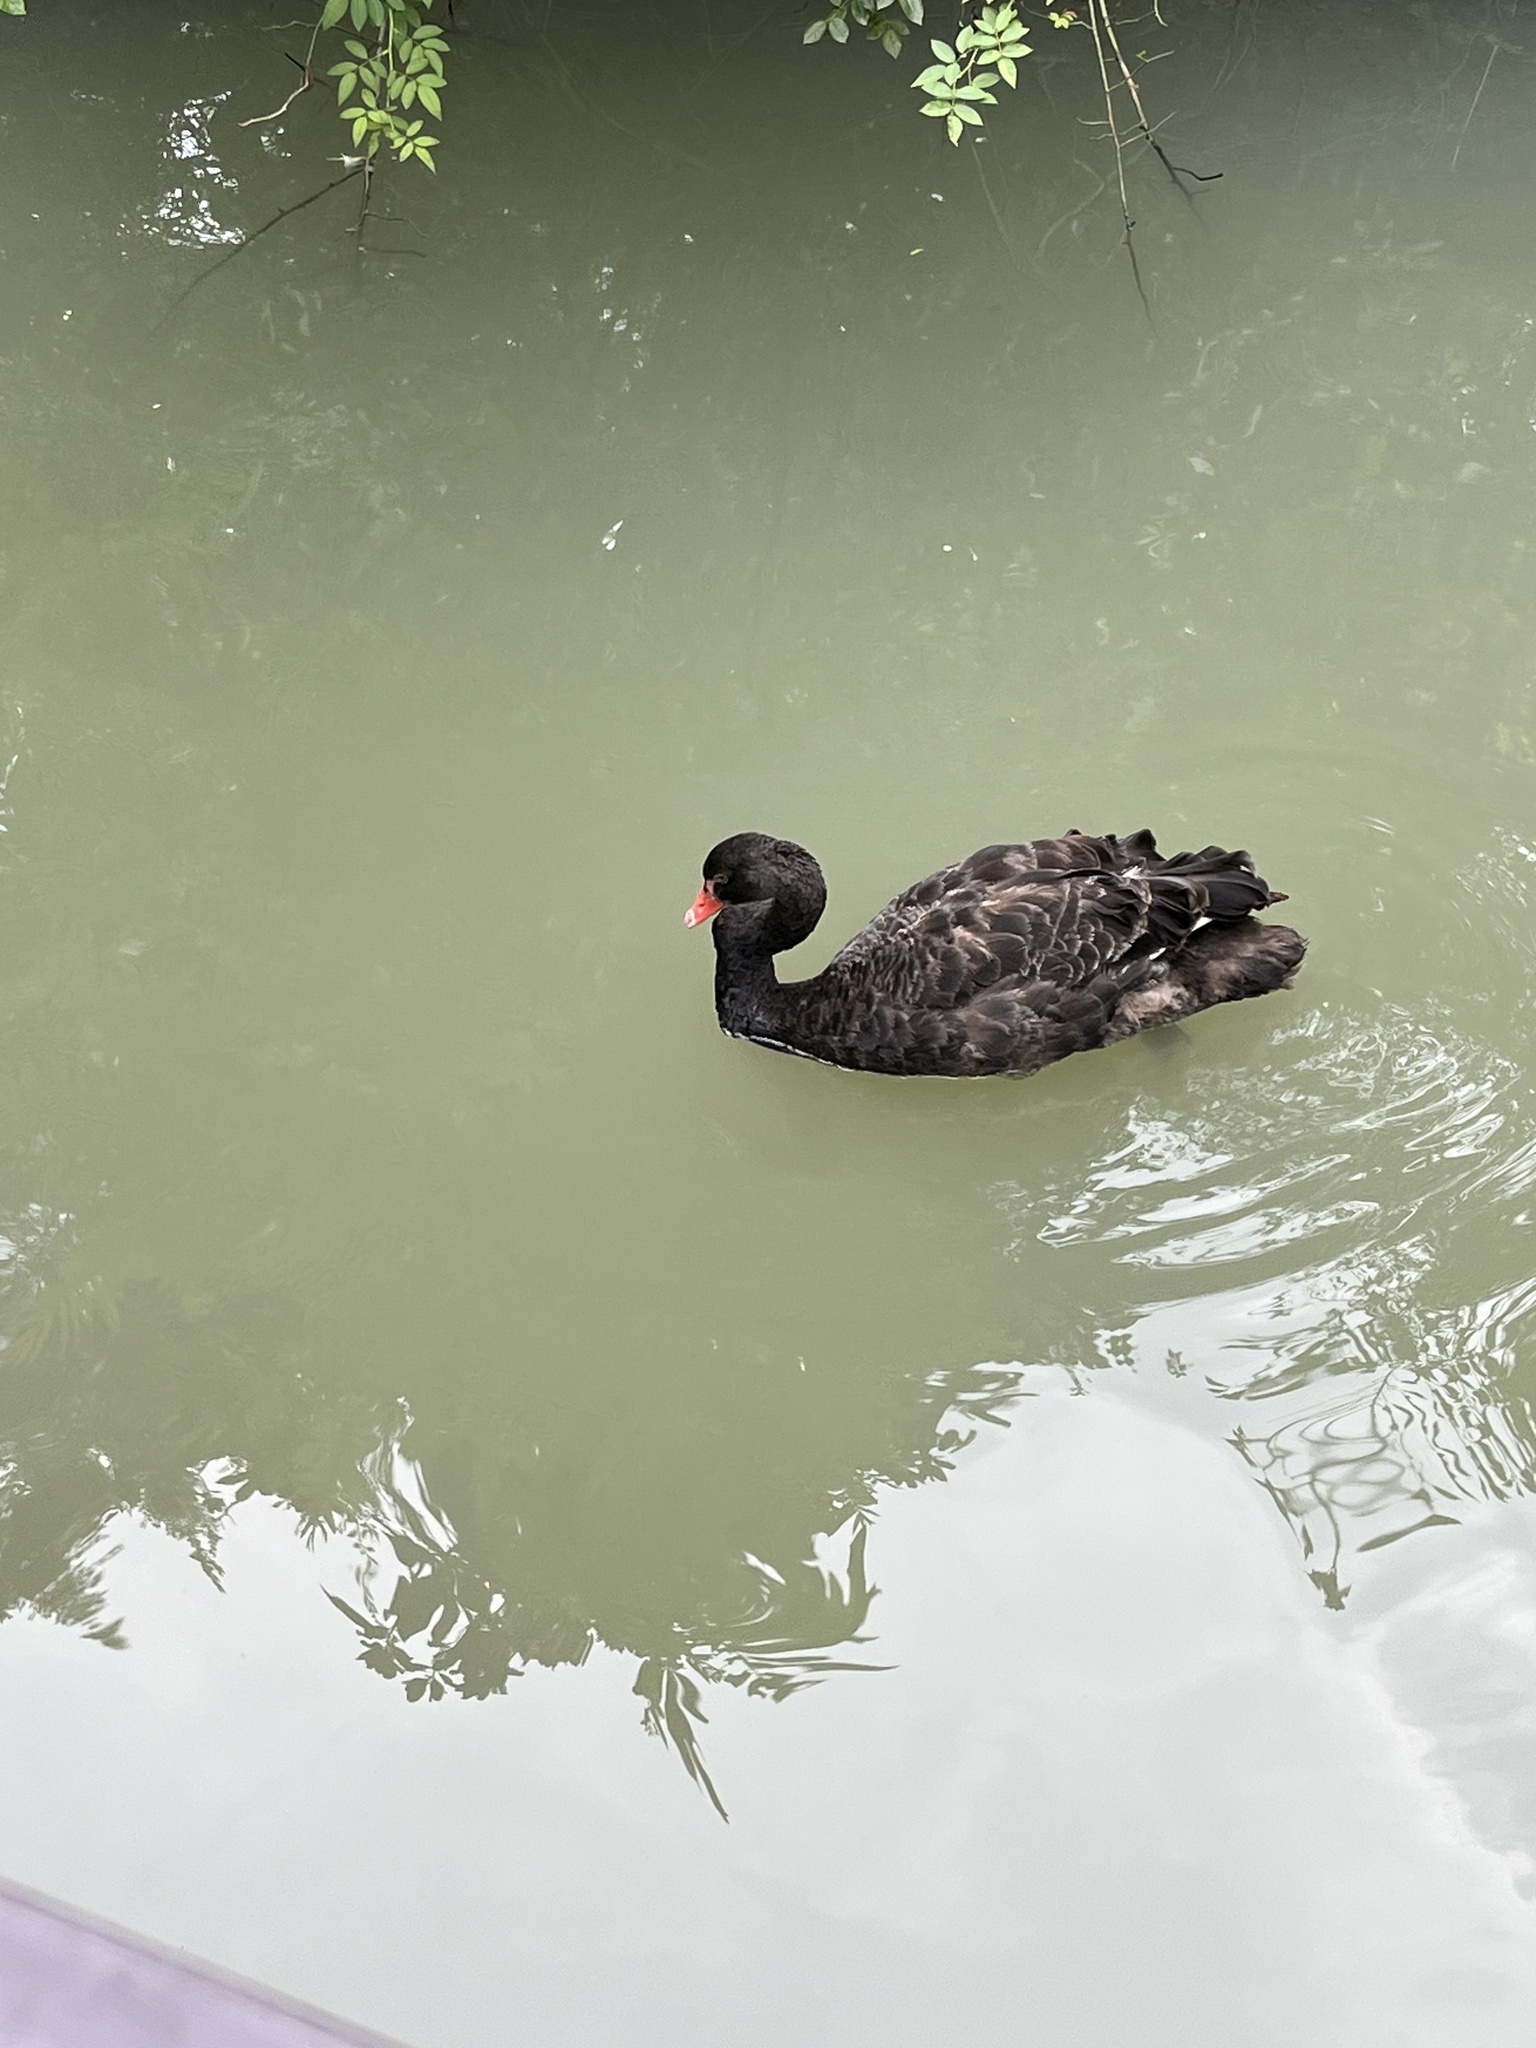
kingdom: Animalia
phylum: Chordata
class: Aves
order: Anseriformes
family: Anatidae
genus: Cygnus
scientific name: Cygnus atratus
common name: Black swan
